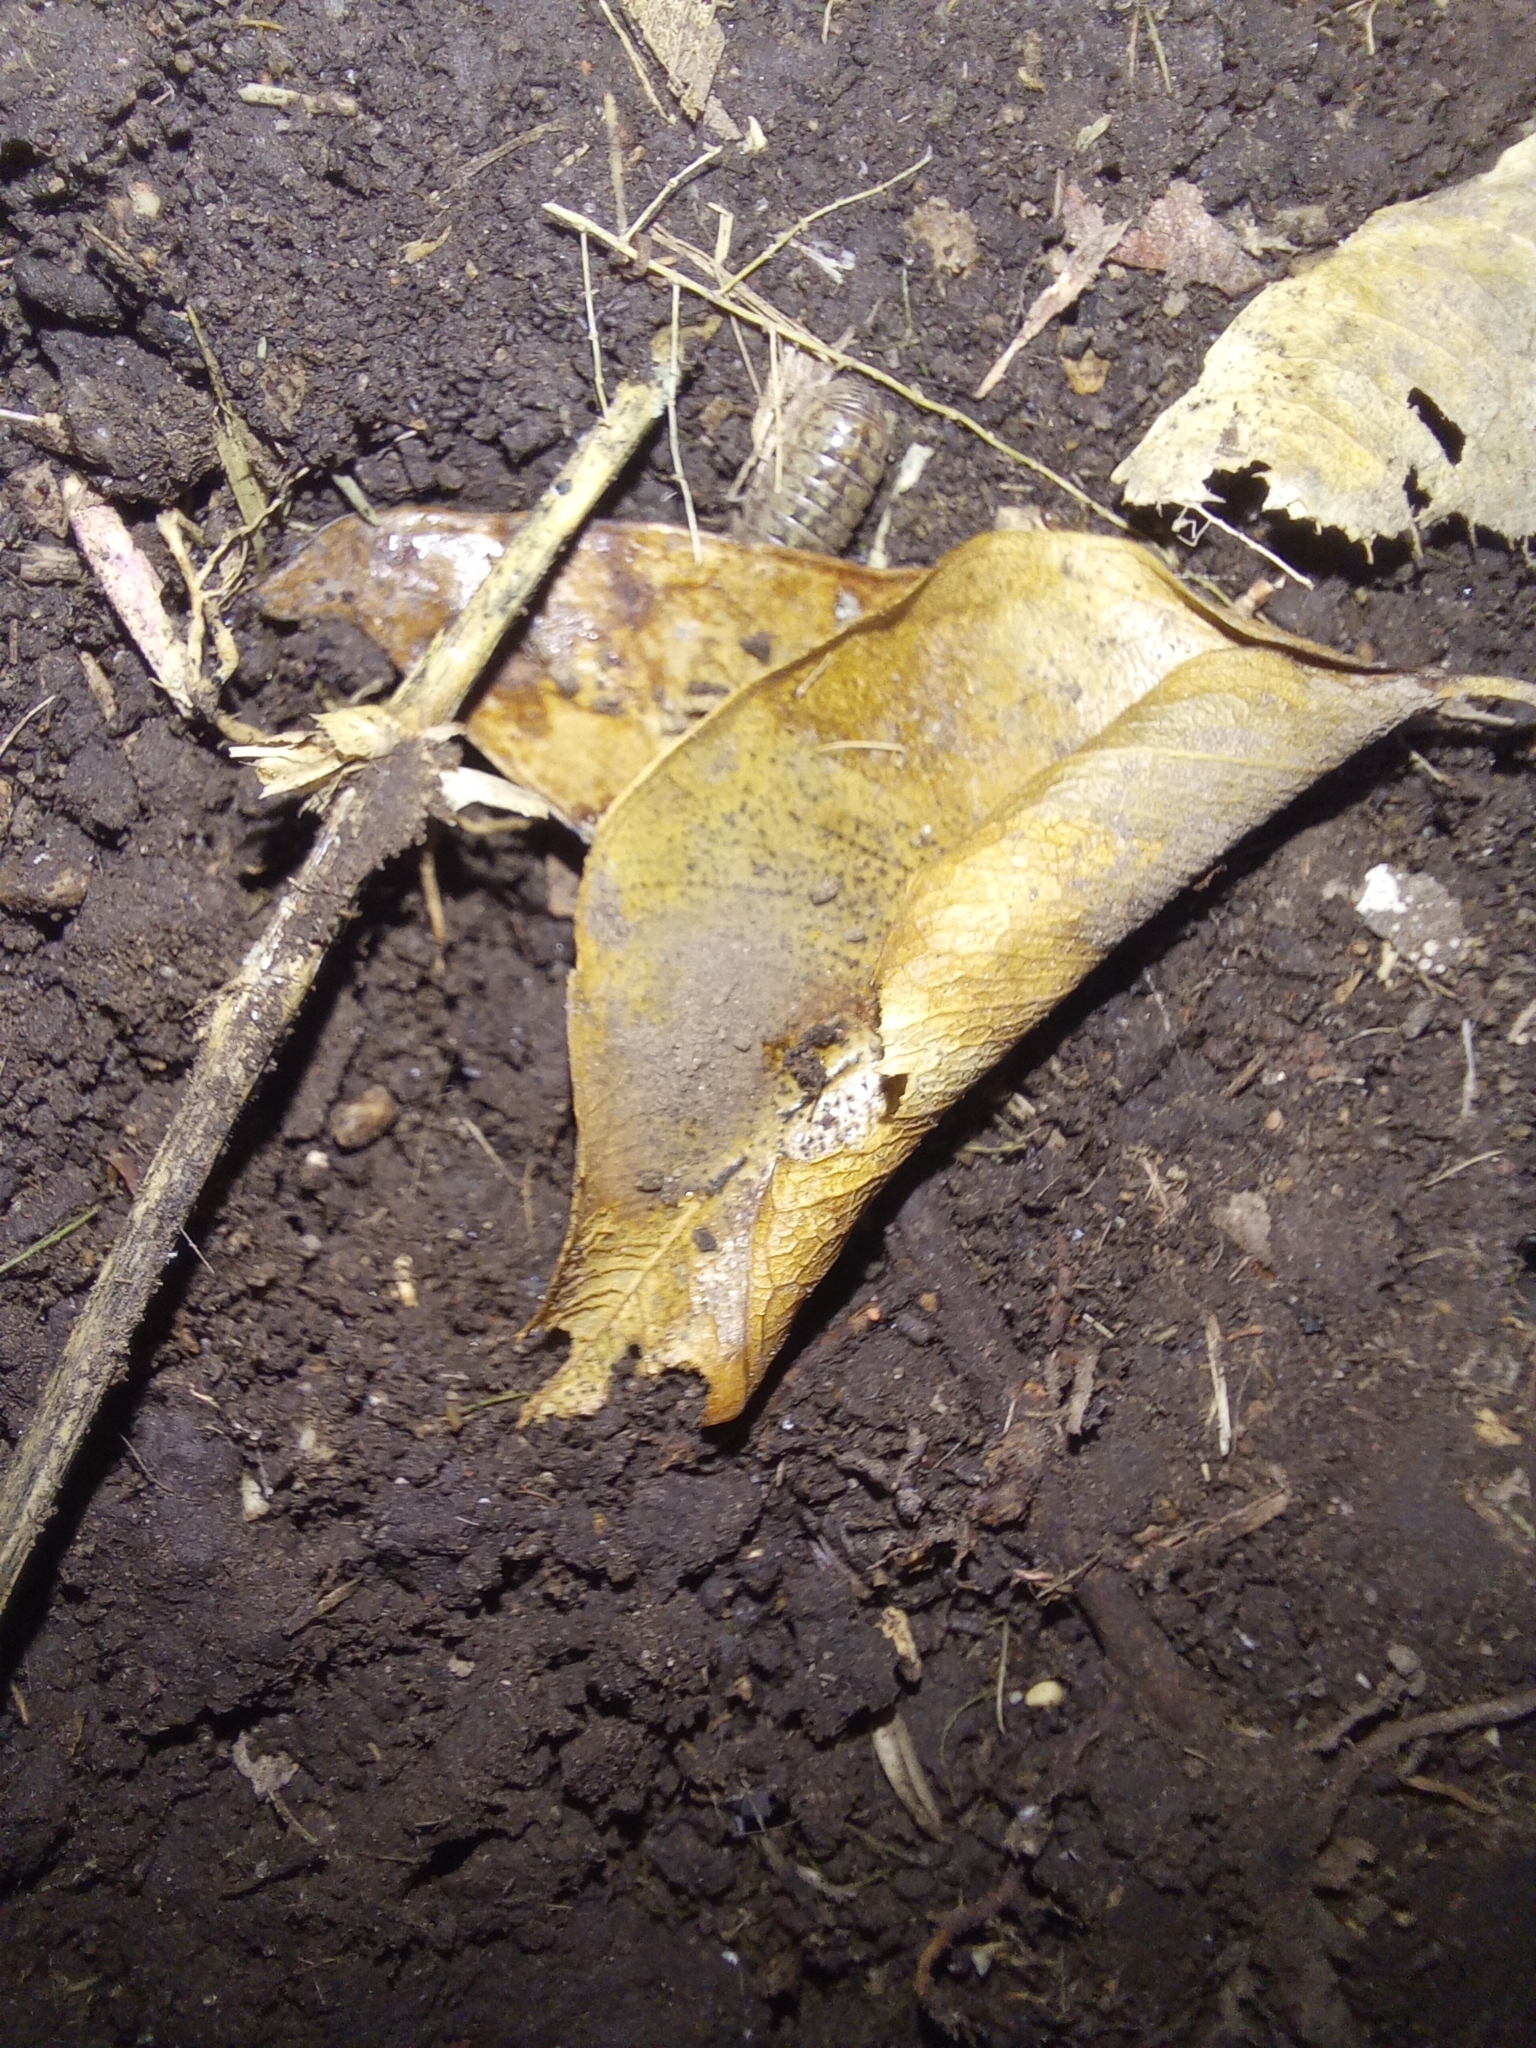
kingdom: Animalia
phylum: Arthropoda
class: Malacostraca
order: Isopoda
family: Armadillidiidae
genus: Armadillidium
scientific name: Armadillidium vulgare
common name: Common pill woodlouse
